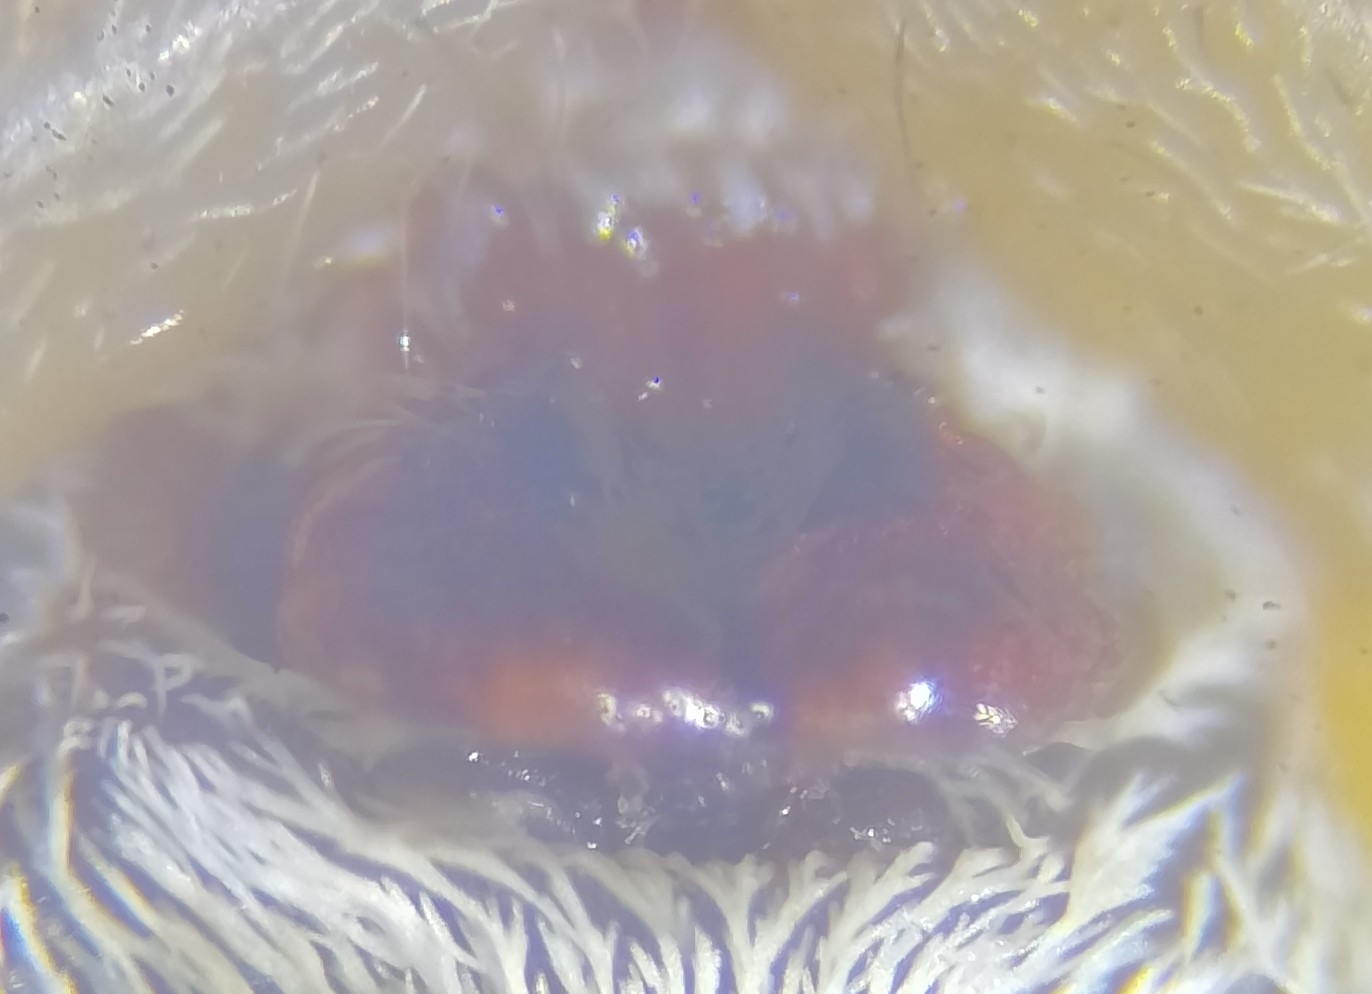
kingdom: Animalia
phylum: Arthropoda
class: Arachnida
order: Araneae
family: Lycosidae
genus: Pardosa
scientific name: Pardosa palustris
